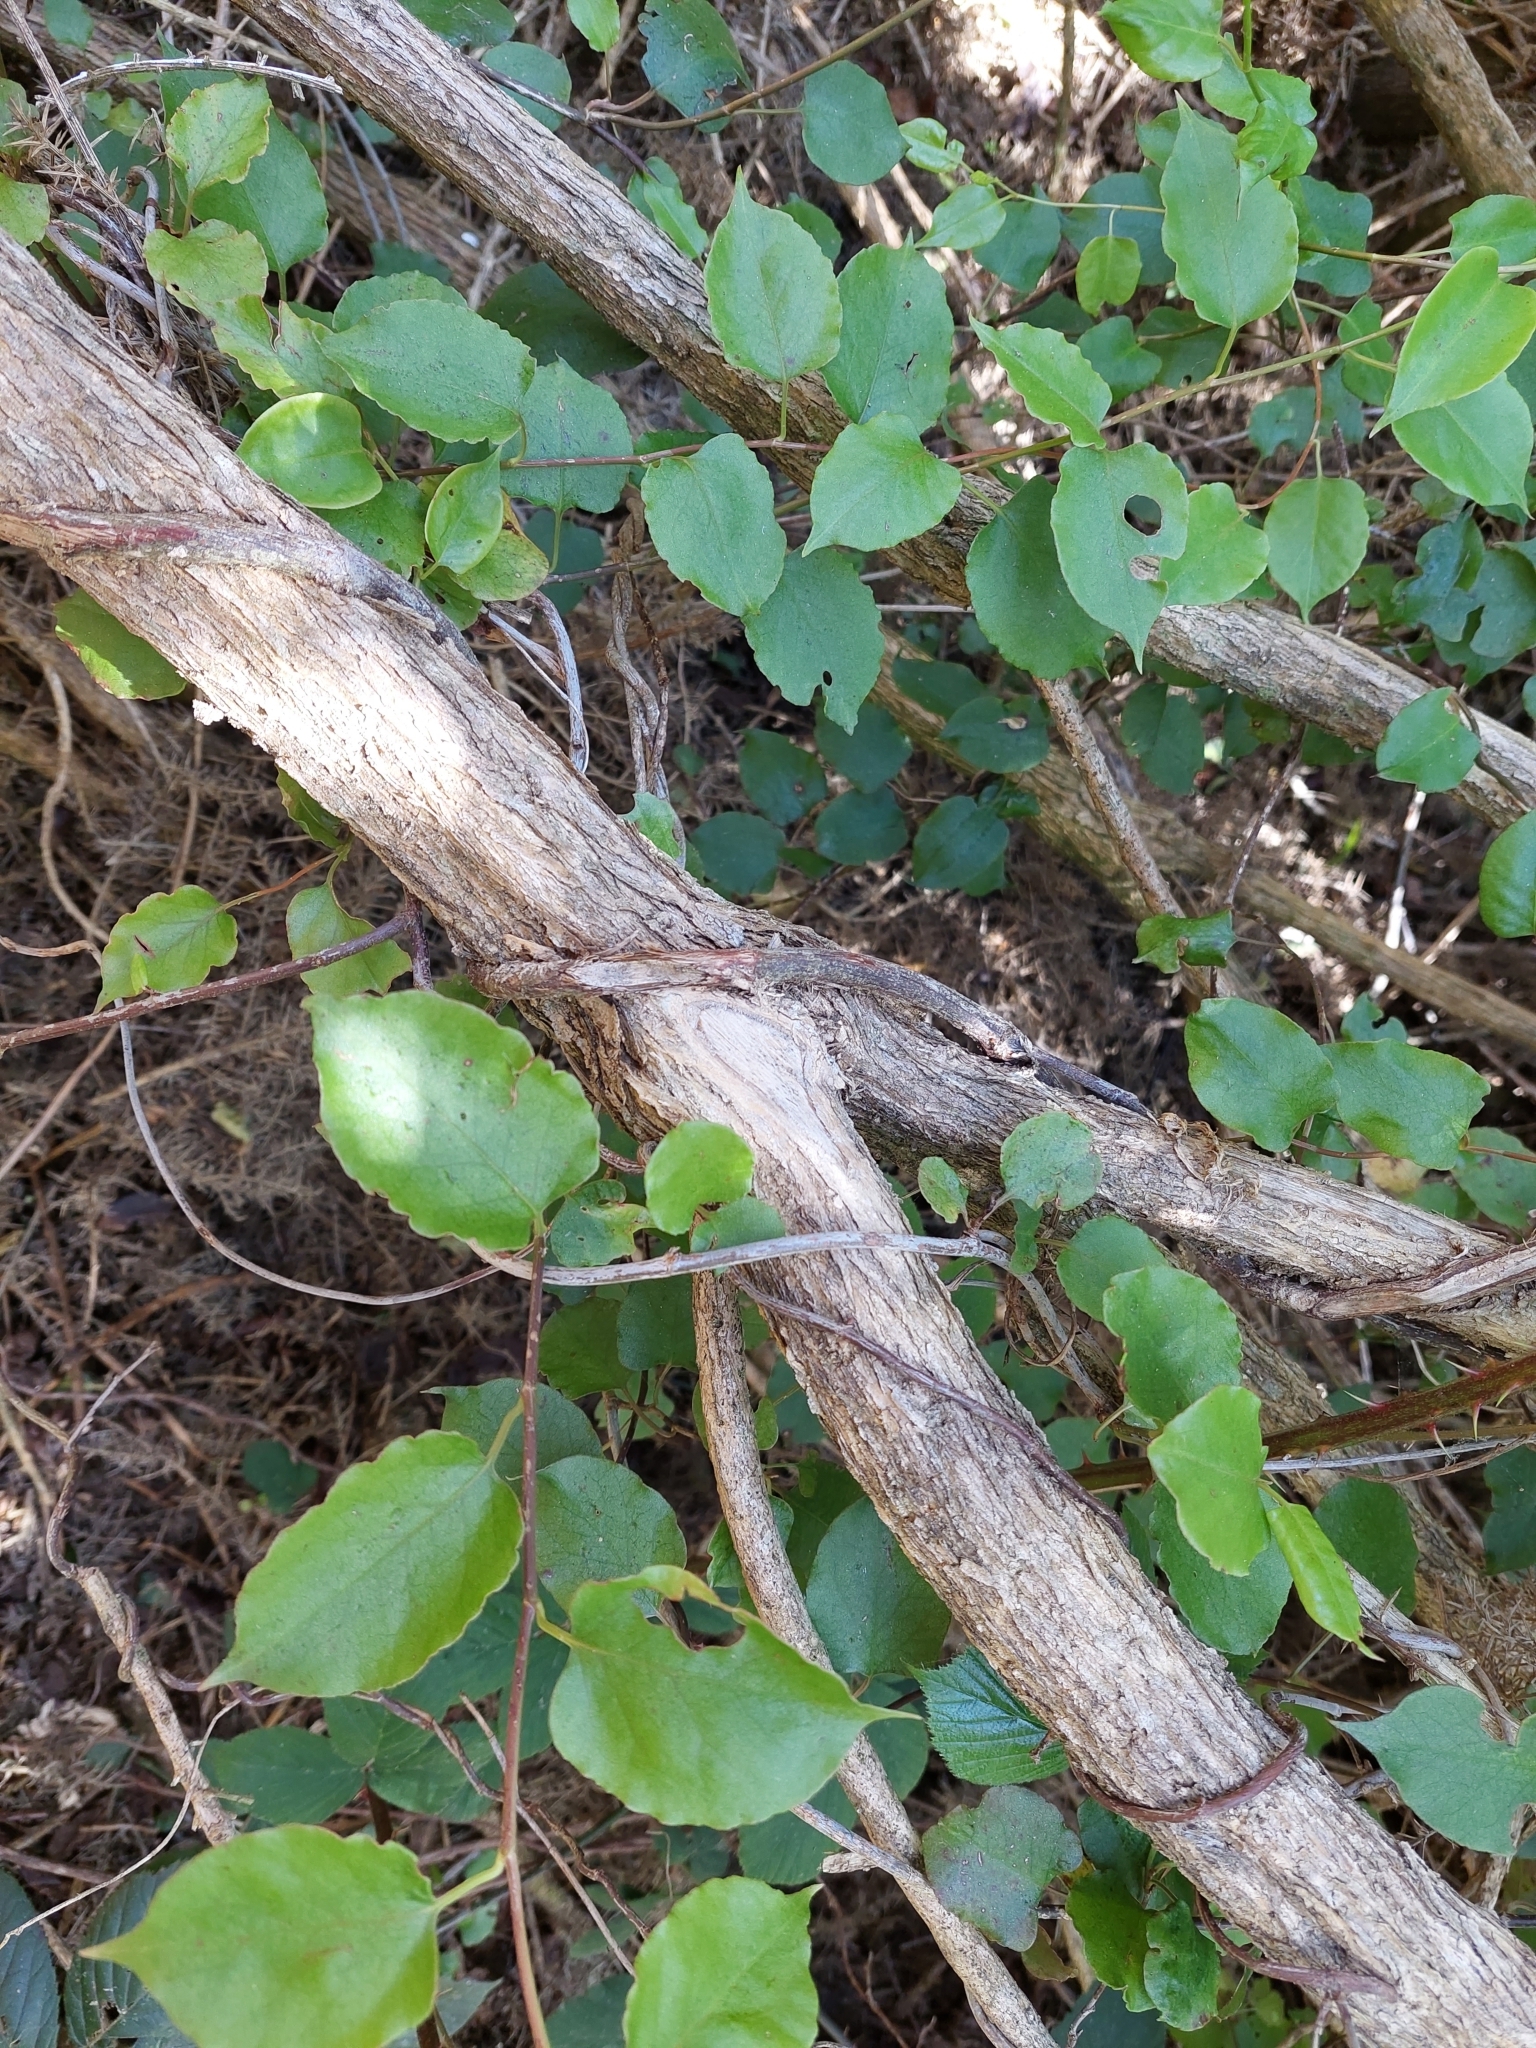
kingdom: Plantae
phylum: Tracheophyta
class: Magnoliopsida
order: Caryophyllales
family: Polygonaceae
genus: Muehlenbeckia
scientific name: Muehlenbeckia australis
